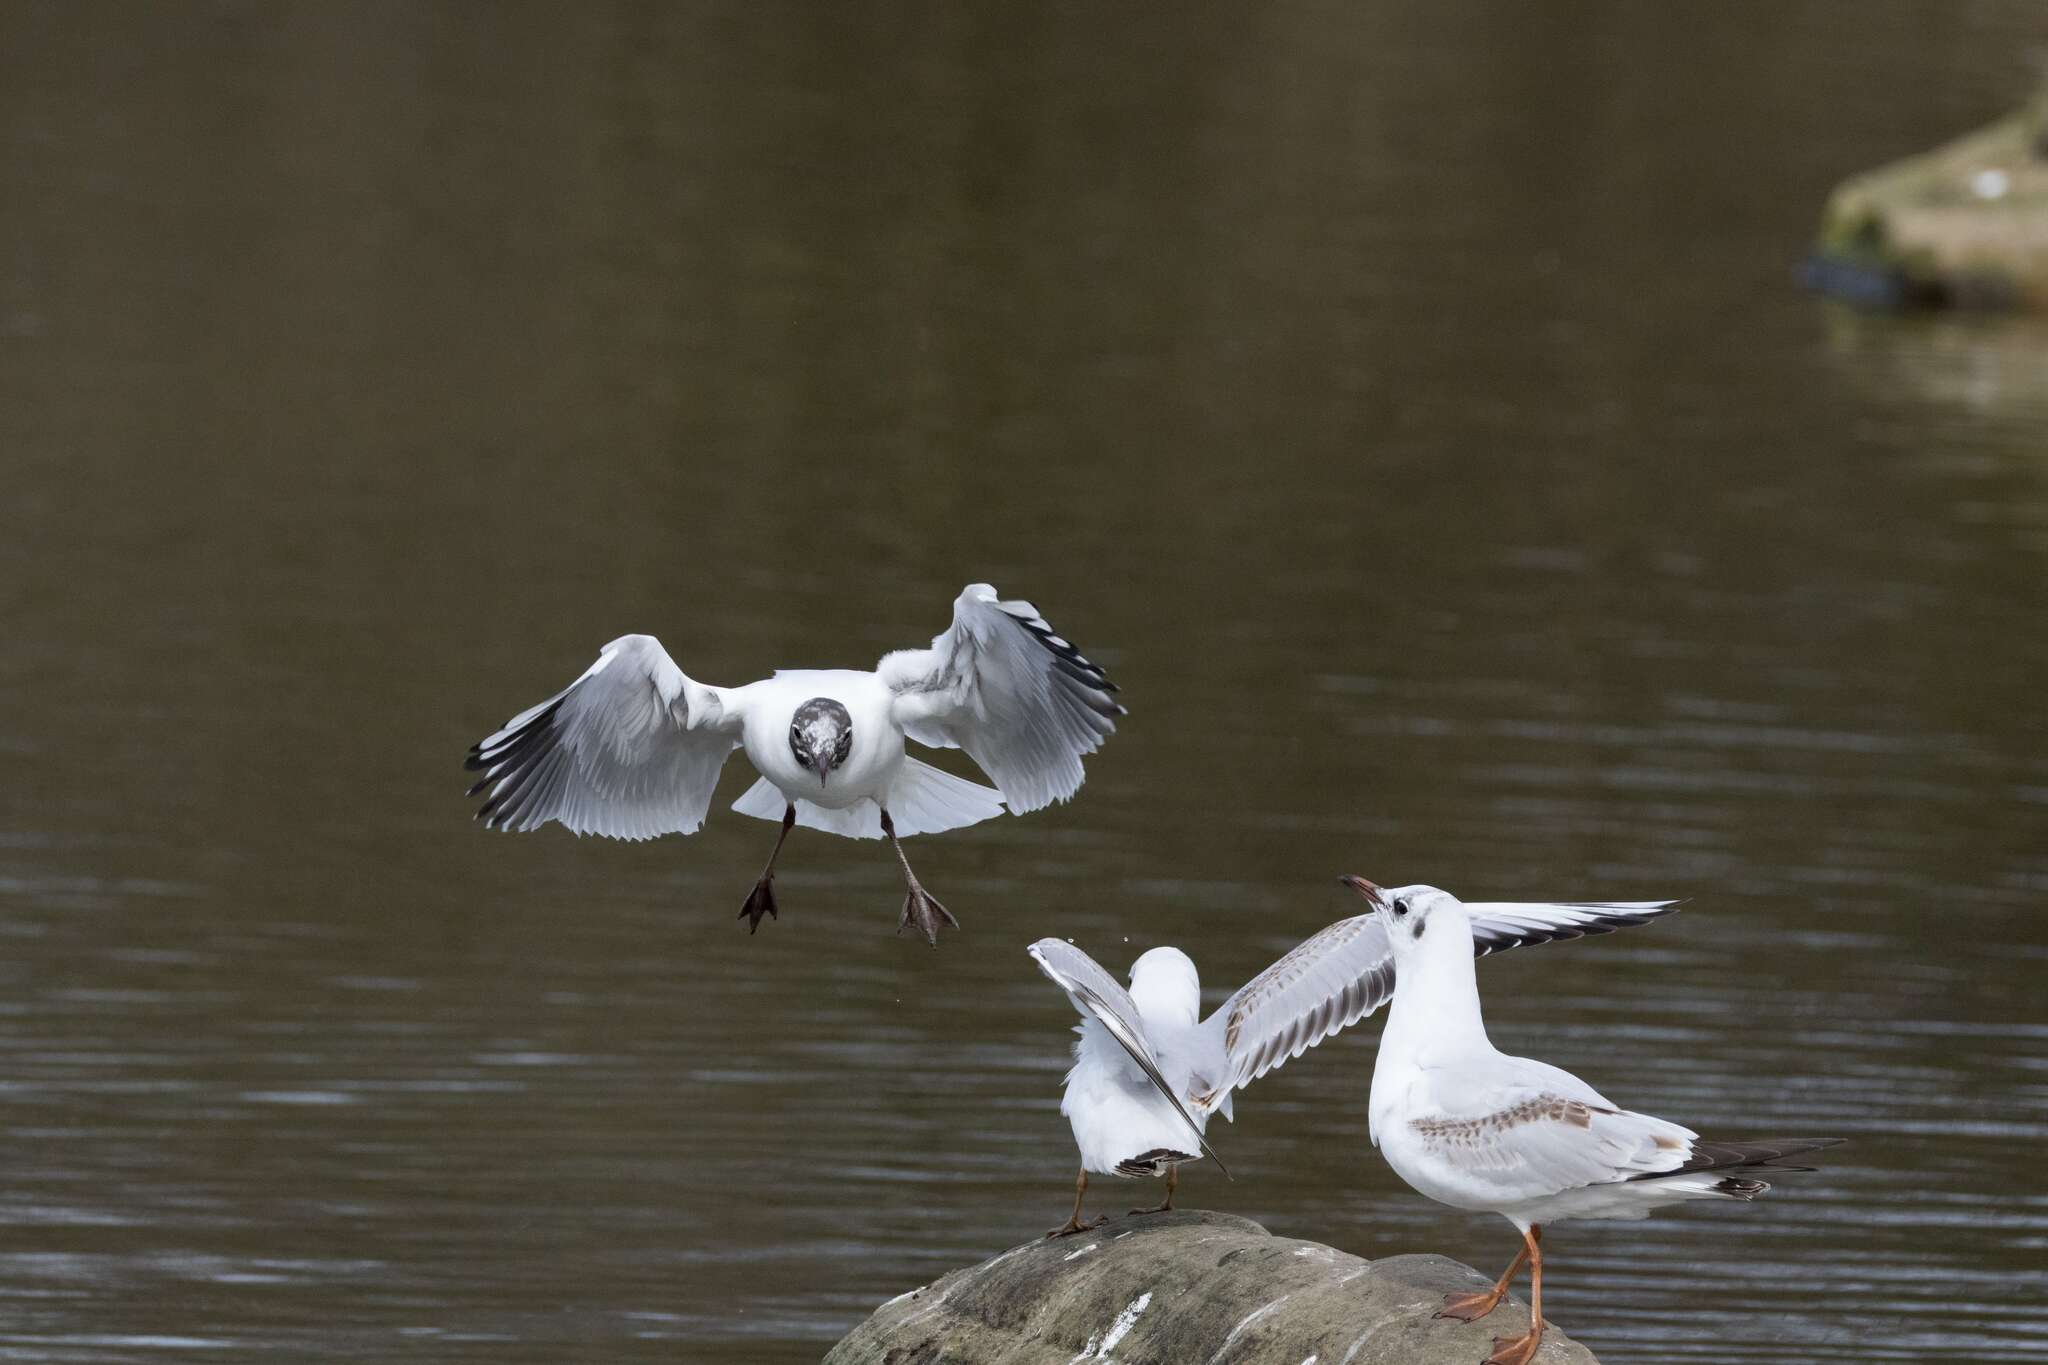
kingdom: Animalia
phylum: Chordata
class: Aves
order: Charadriiformes
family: Laridae
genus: Chroicocephalus
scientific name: Chroicocephalus ridibundus
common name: Black-headed gull
